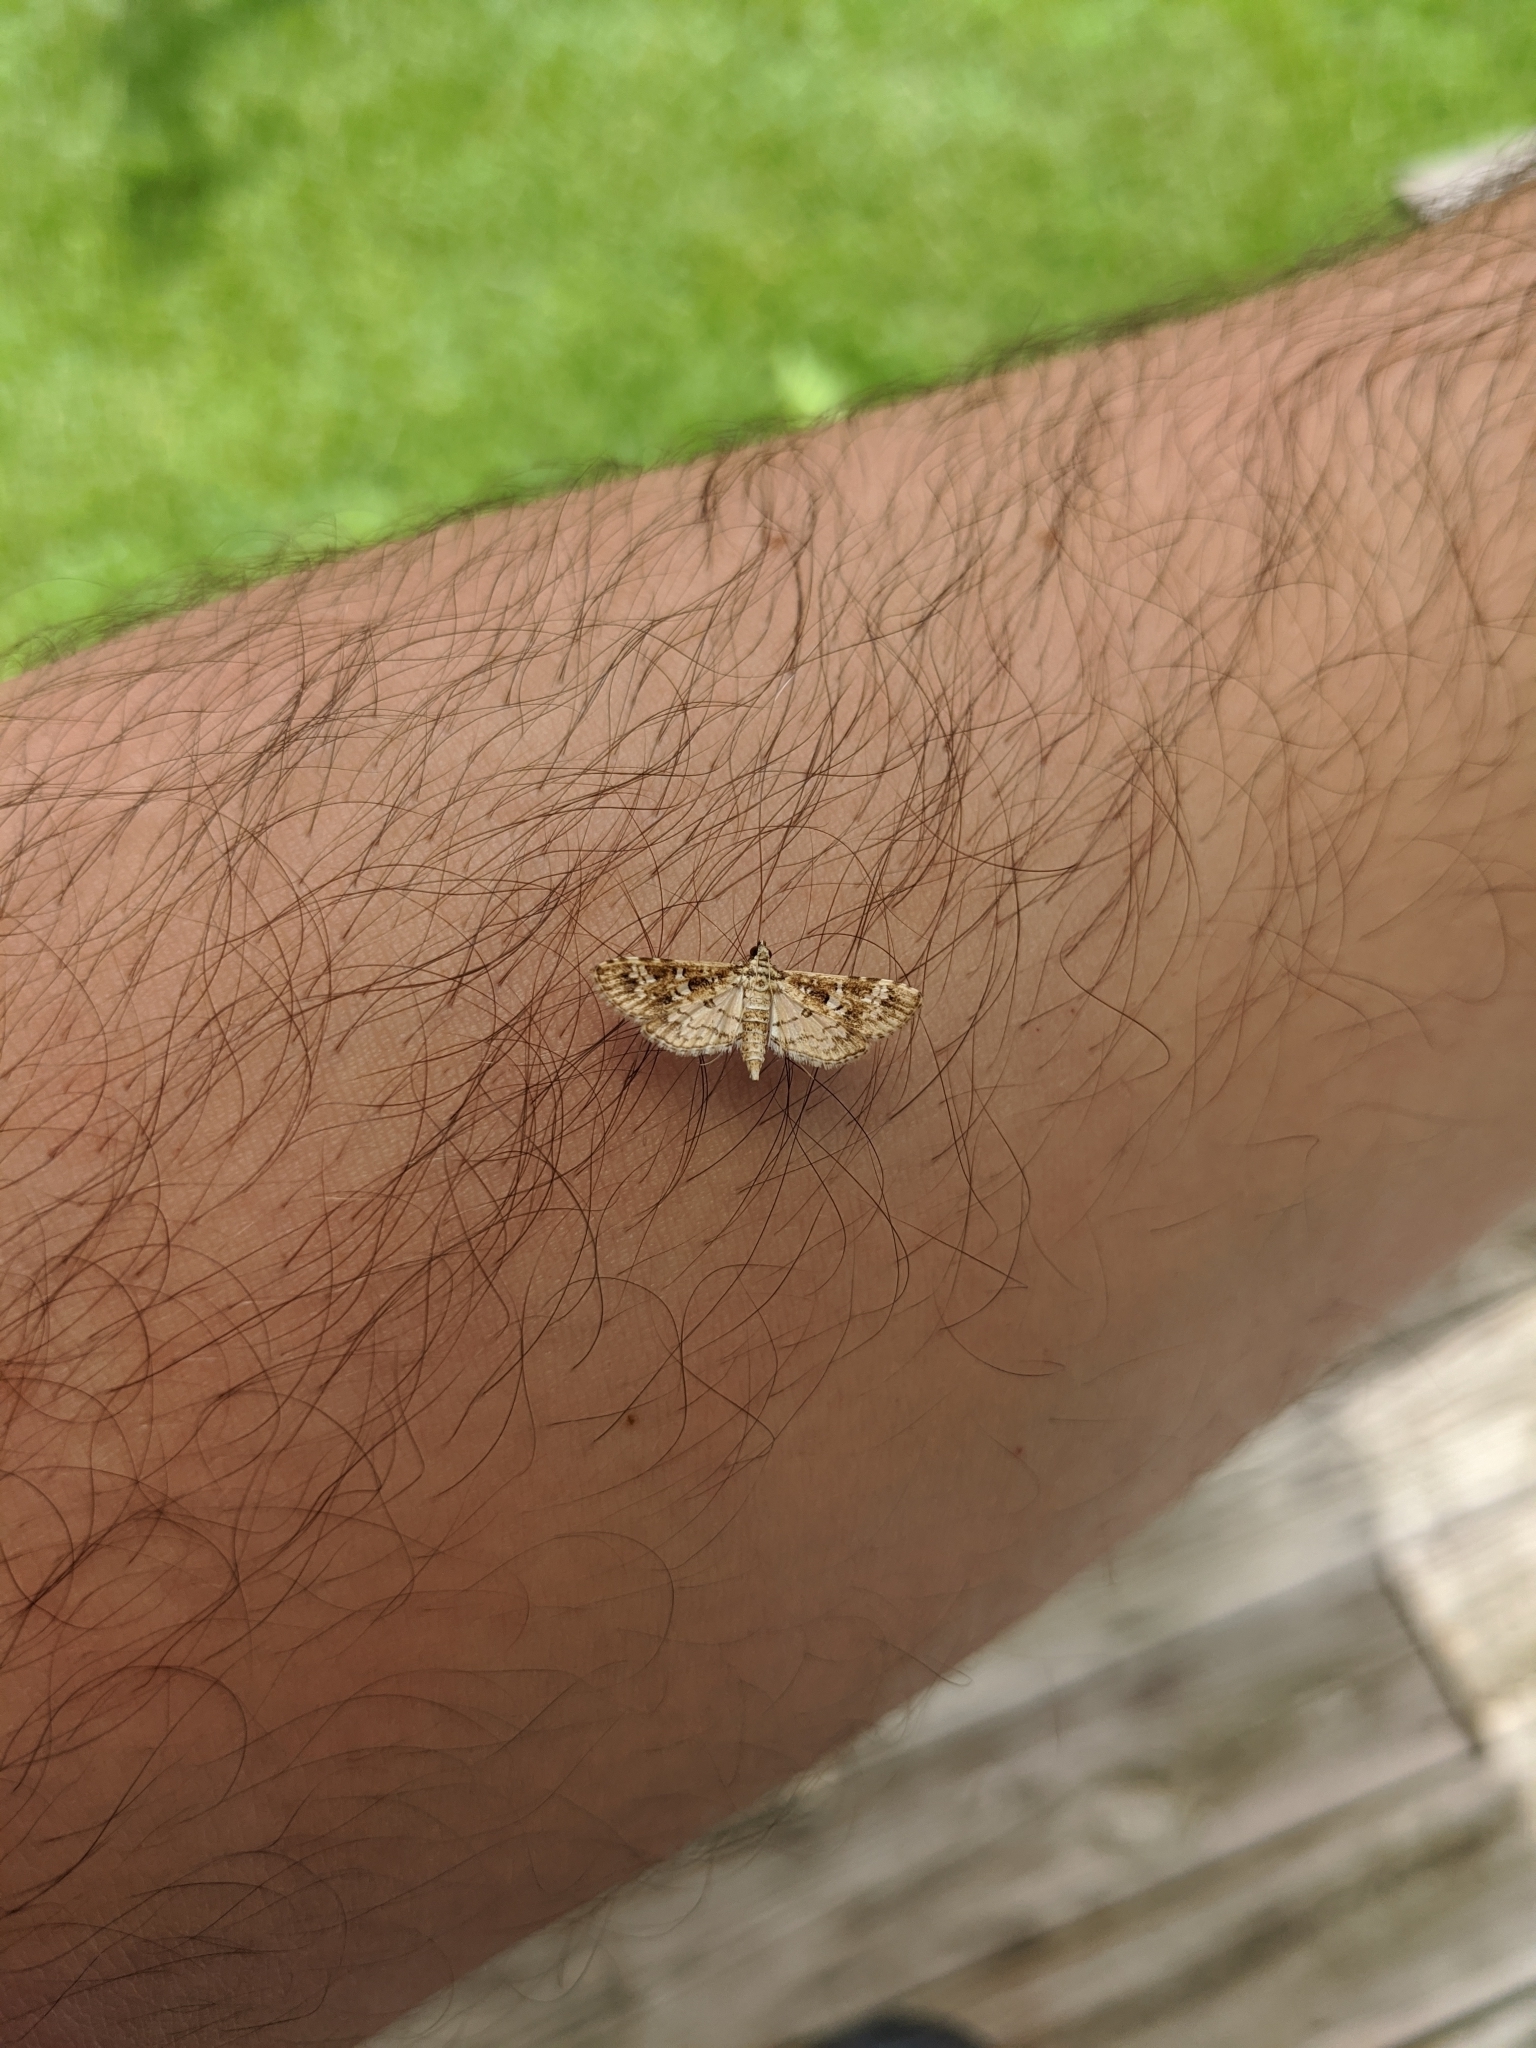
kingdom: Animalia
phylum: Arthropoda
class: Insecta
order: Lepidoptera
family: Crambidae
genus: Samea
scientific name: Samea multiplicalis
